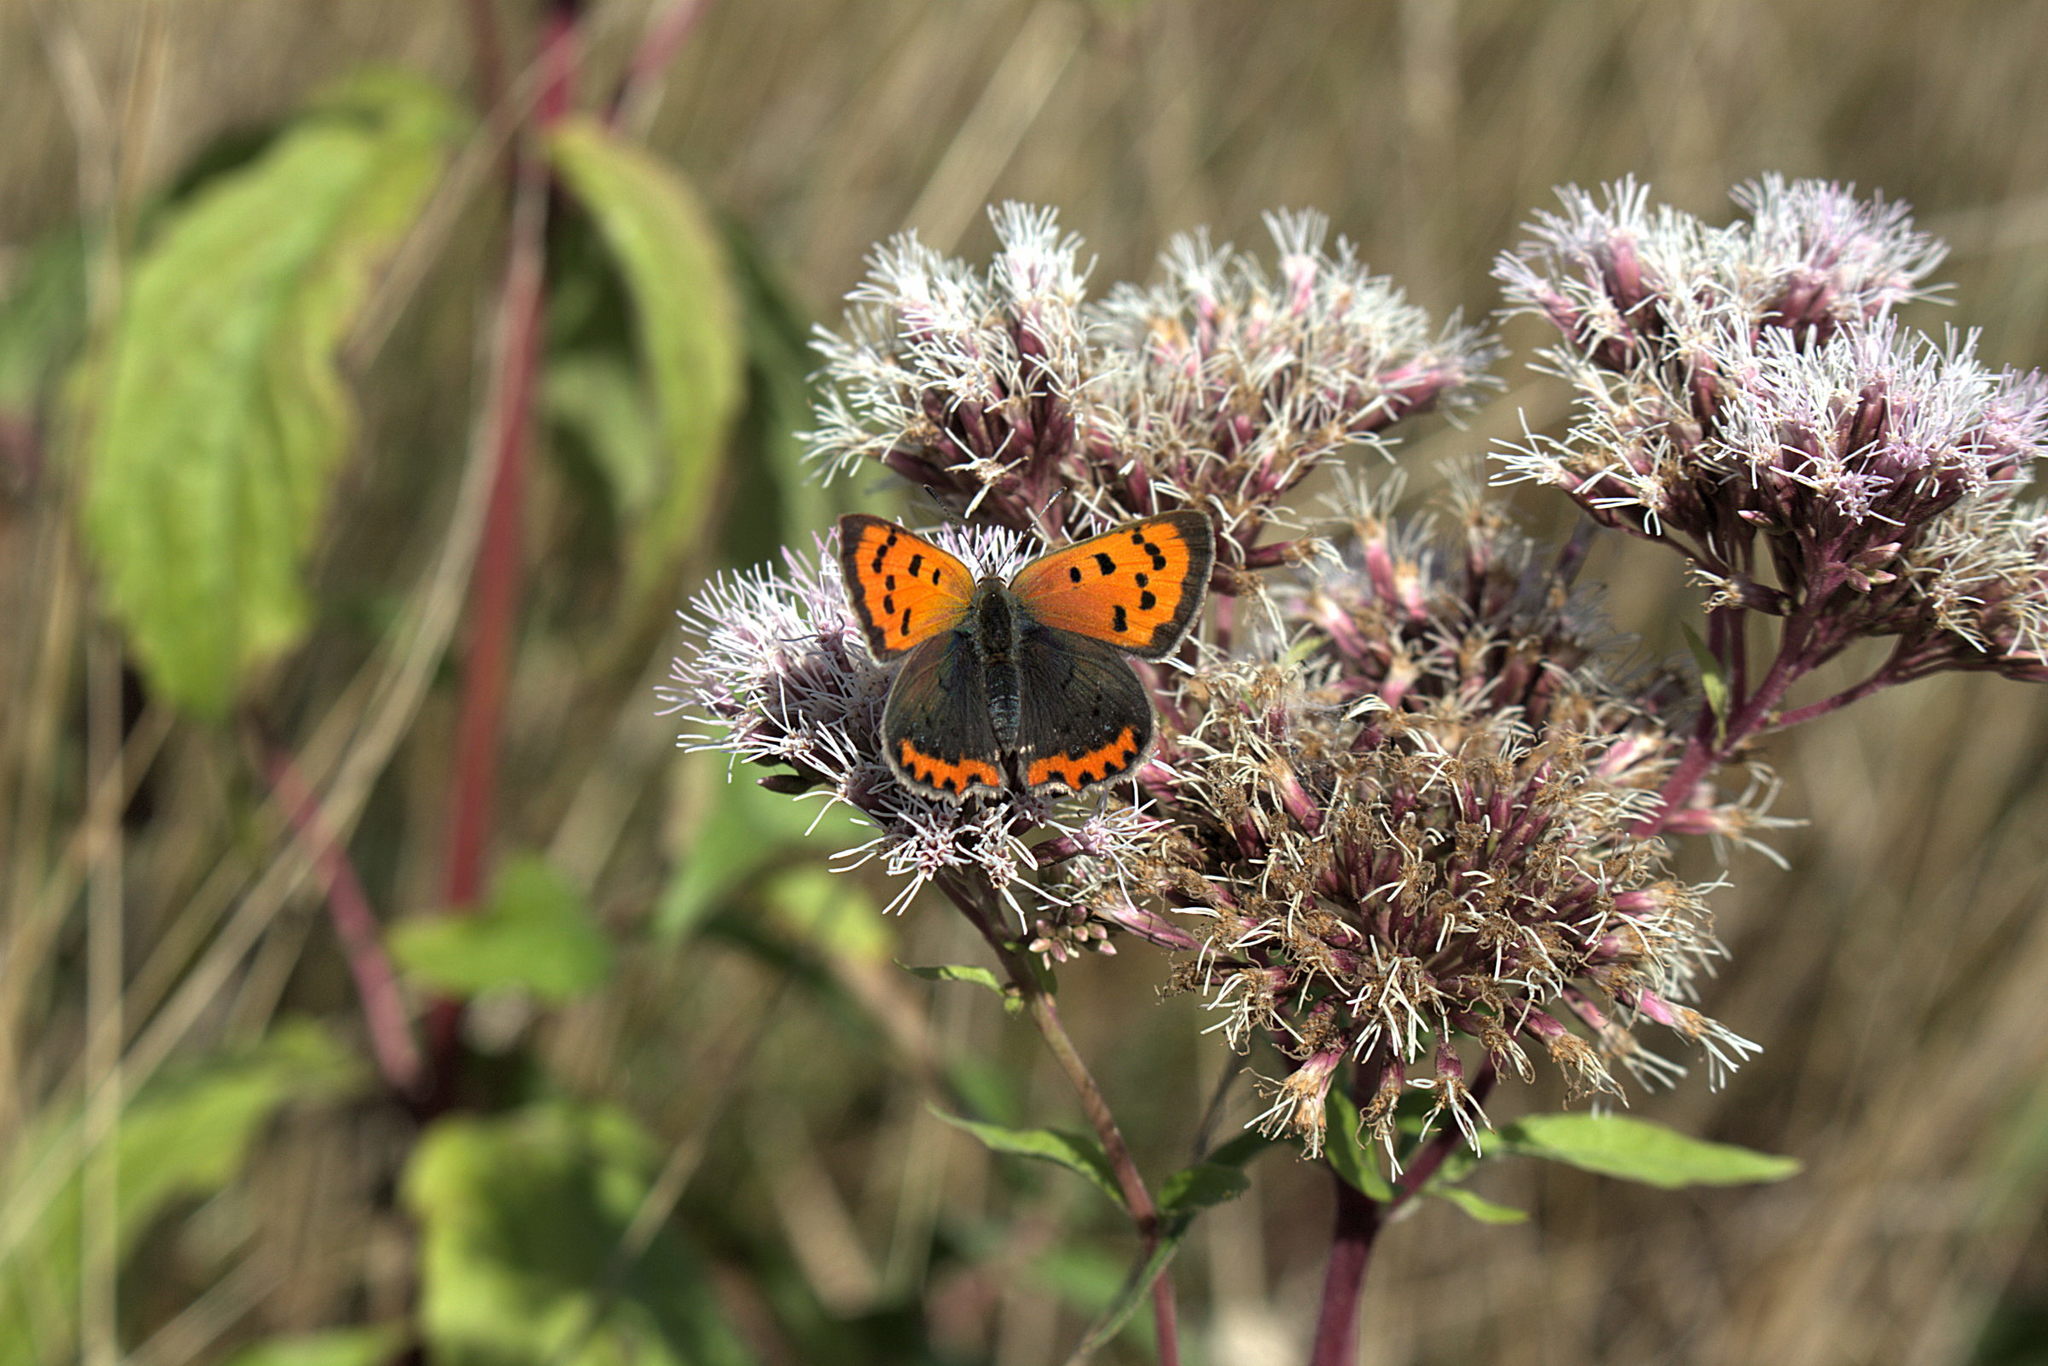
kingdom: Animalia
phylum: Arthropoda
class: Insecta
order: Lepidoptera
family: Lycaenidae
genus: Lycaena
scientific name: Lycaena phlaeas
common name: Small copper
